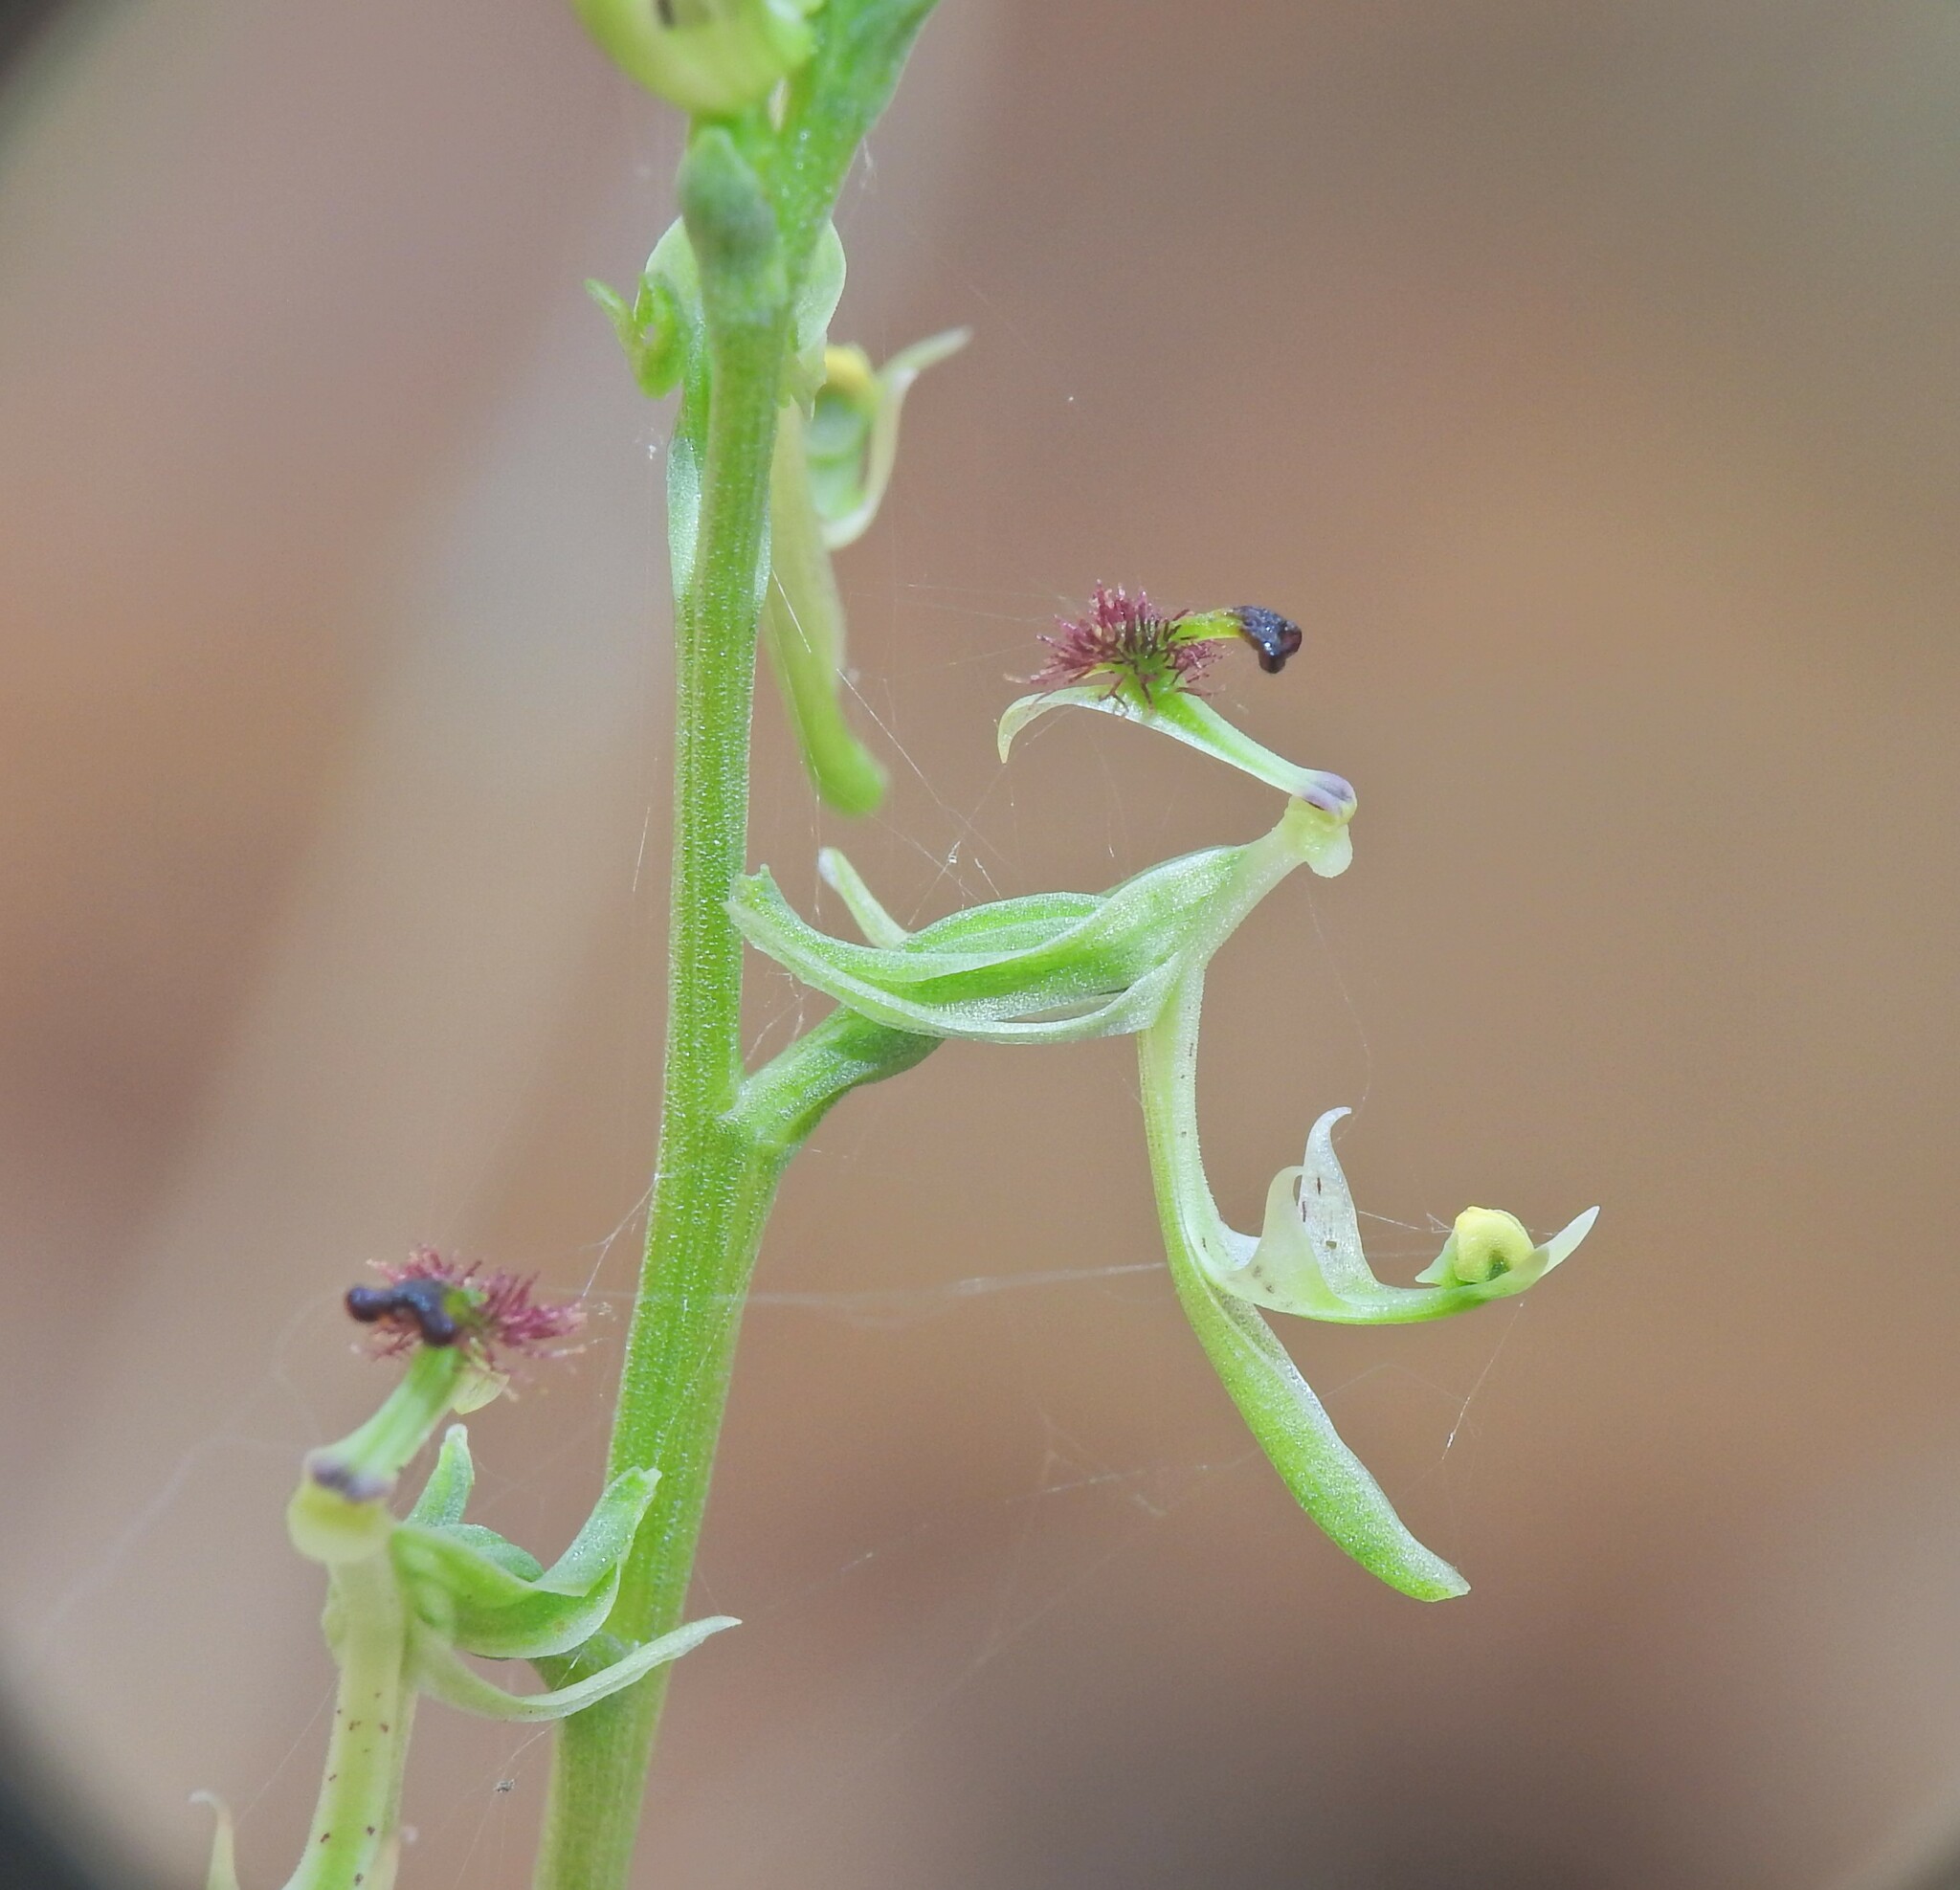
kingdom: Plantae
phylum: Tracheophyta
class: Liliopsida
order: Asparagales
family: Orchidaceae
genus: Arthrochilus
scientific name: Arthrochilus prolixus
